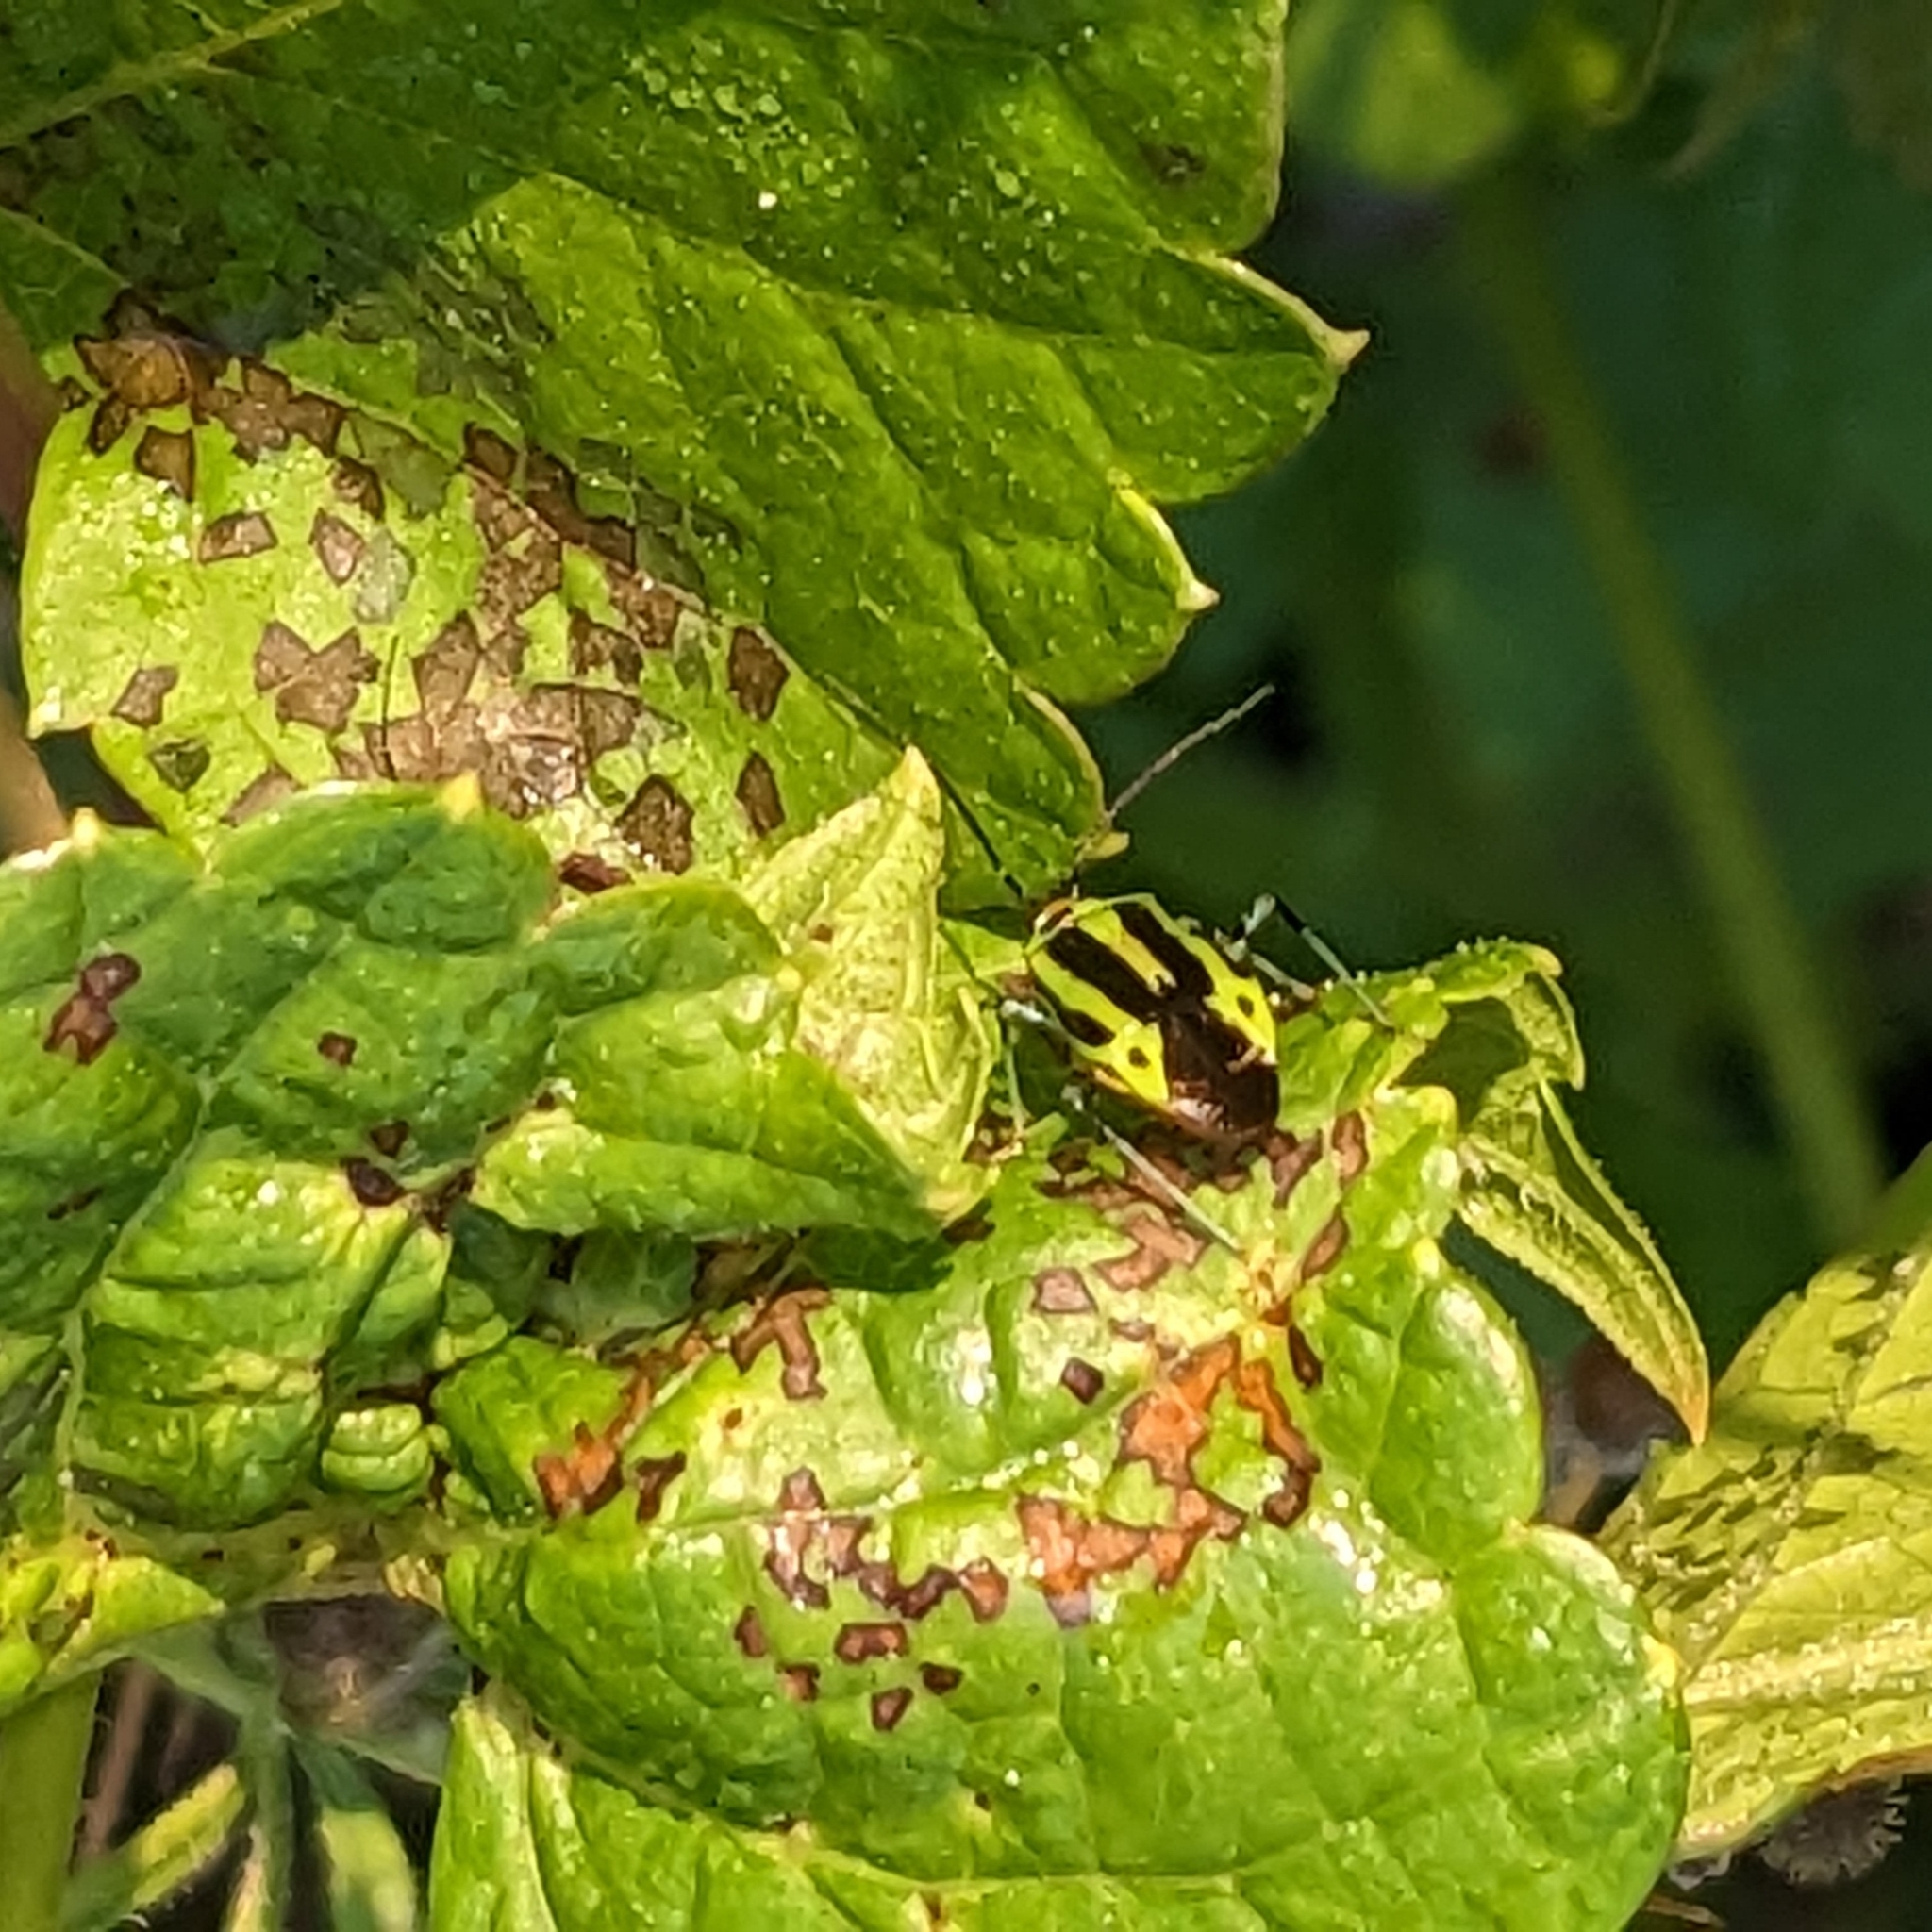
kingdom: Animalia
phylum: Arthropoda
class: Insecta
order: Hemiptera
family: Miridae
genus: Poecilocapsus
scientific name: Poecilocapsus lineatus
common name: Four-lined plant bug
